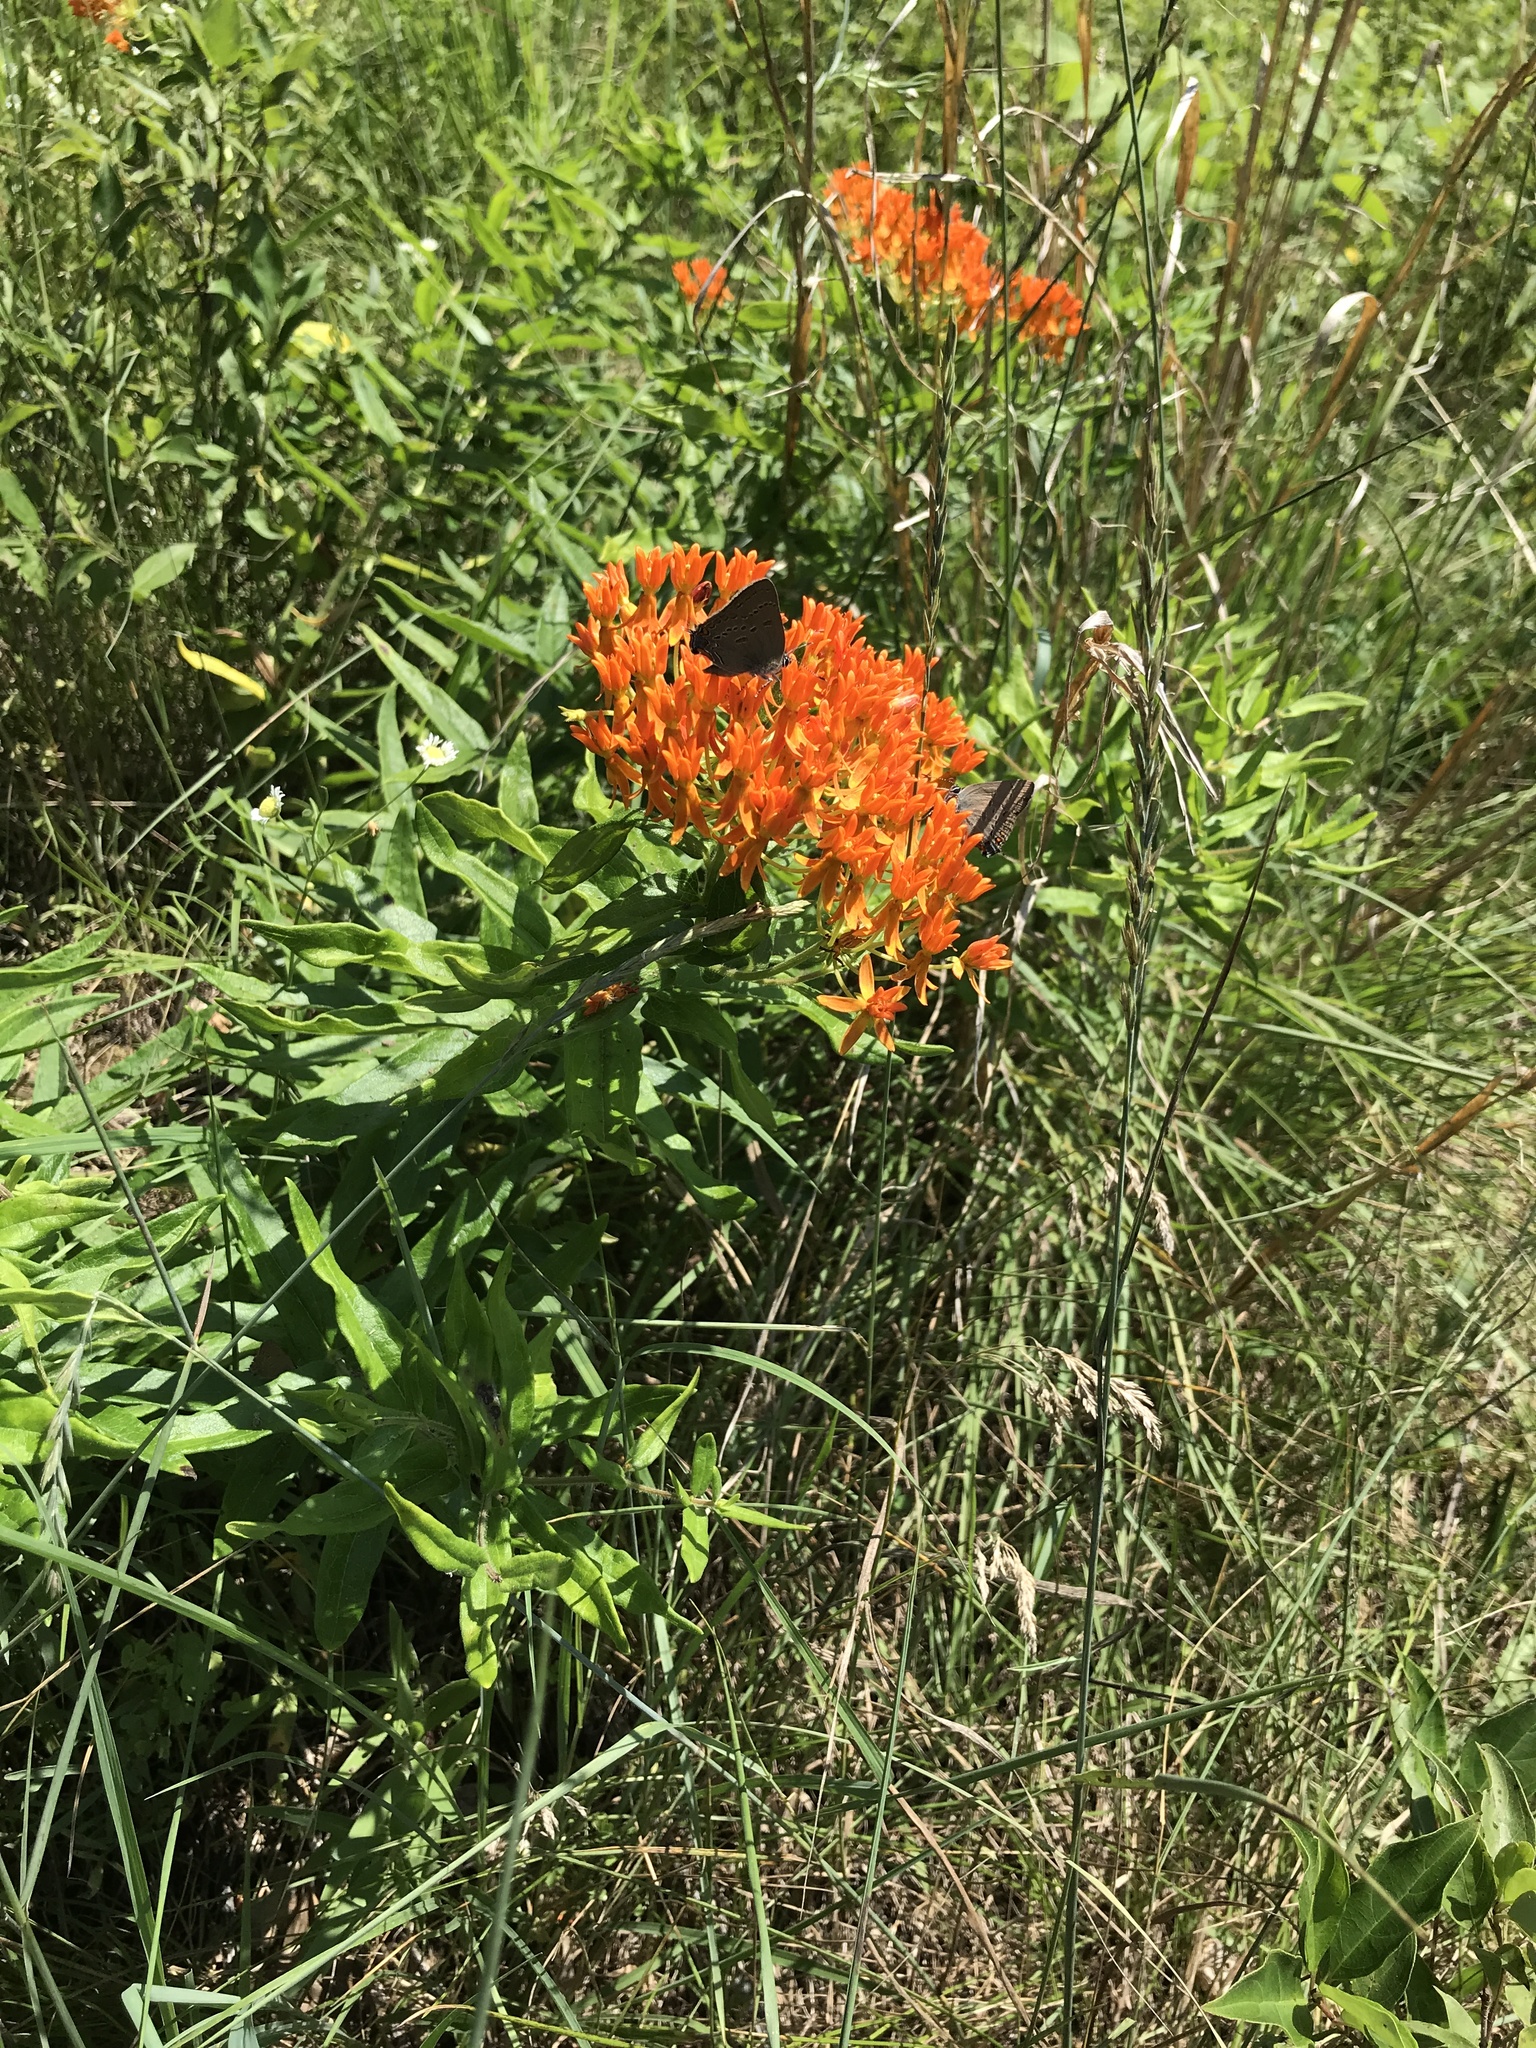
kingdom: Plantae
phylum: Tracheophyta
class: Magnoliopsida
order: Gentianales
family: Apocynaceae
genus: Asclepias
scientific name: Asclepias tuberosa
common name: Butterfly milkweed
